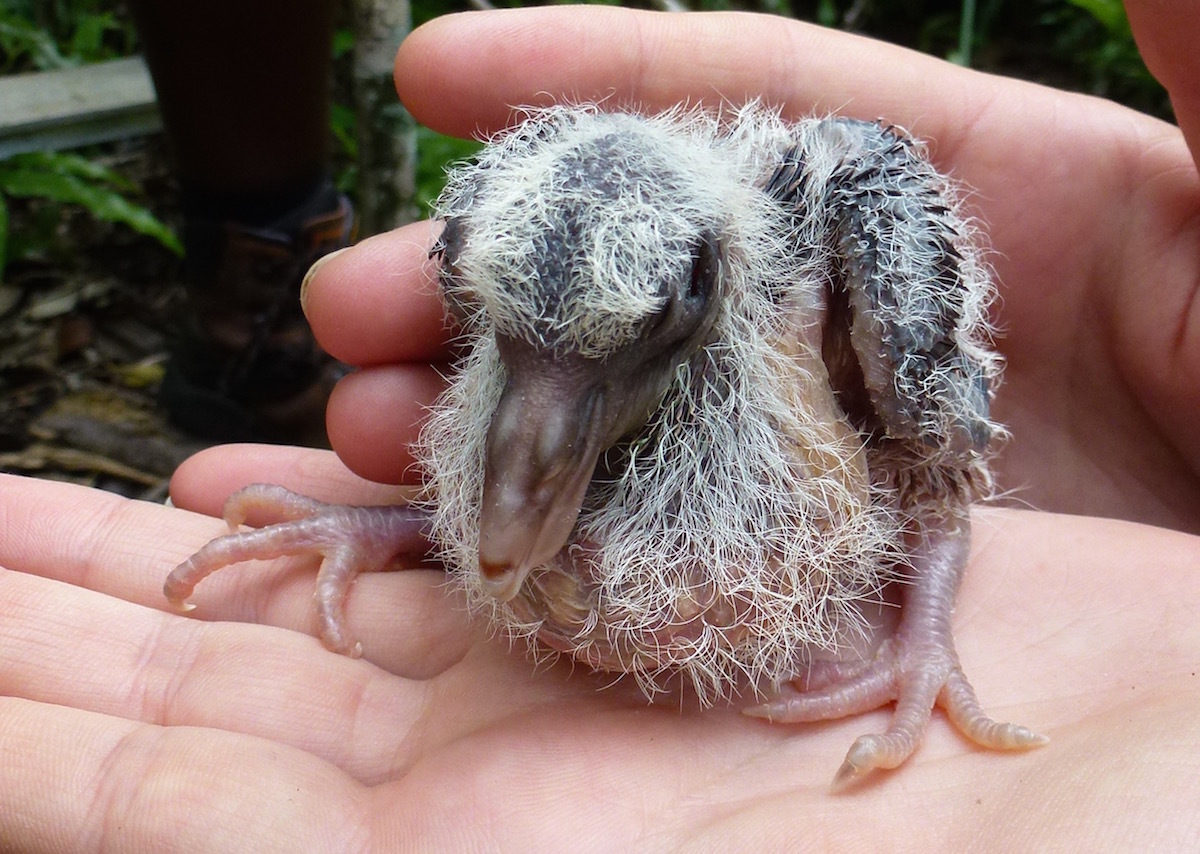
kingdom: Animalia
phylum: Chordata
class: Aves
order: Columbiformes
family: Columbidae
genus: Nesoenas
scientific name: Nesoenas mayeri
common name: Pink pigeon
